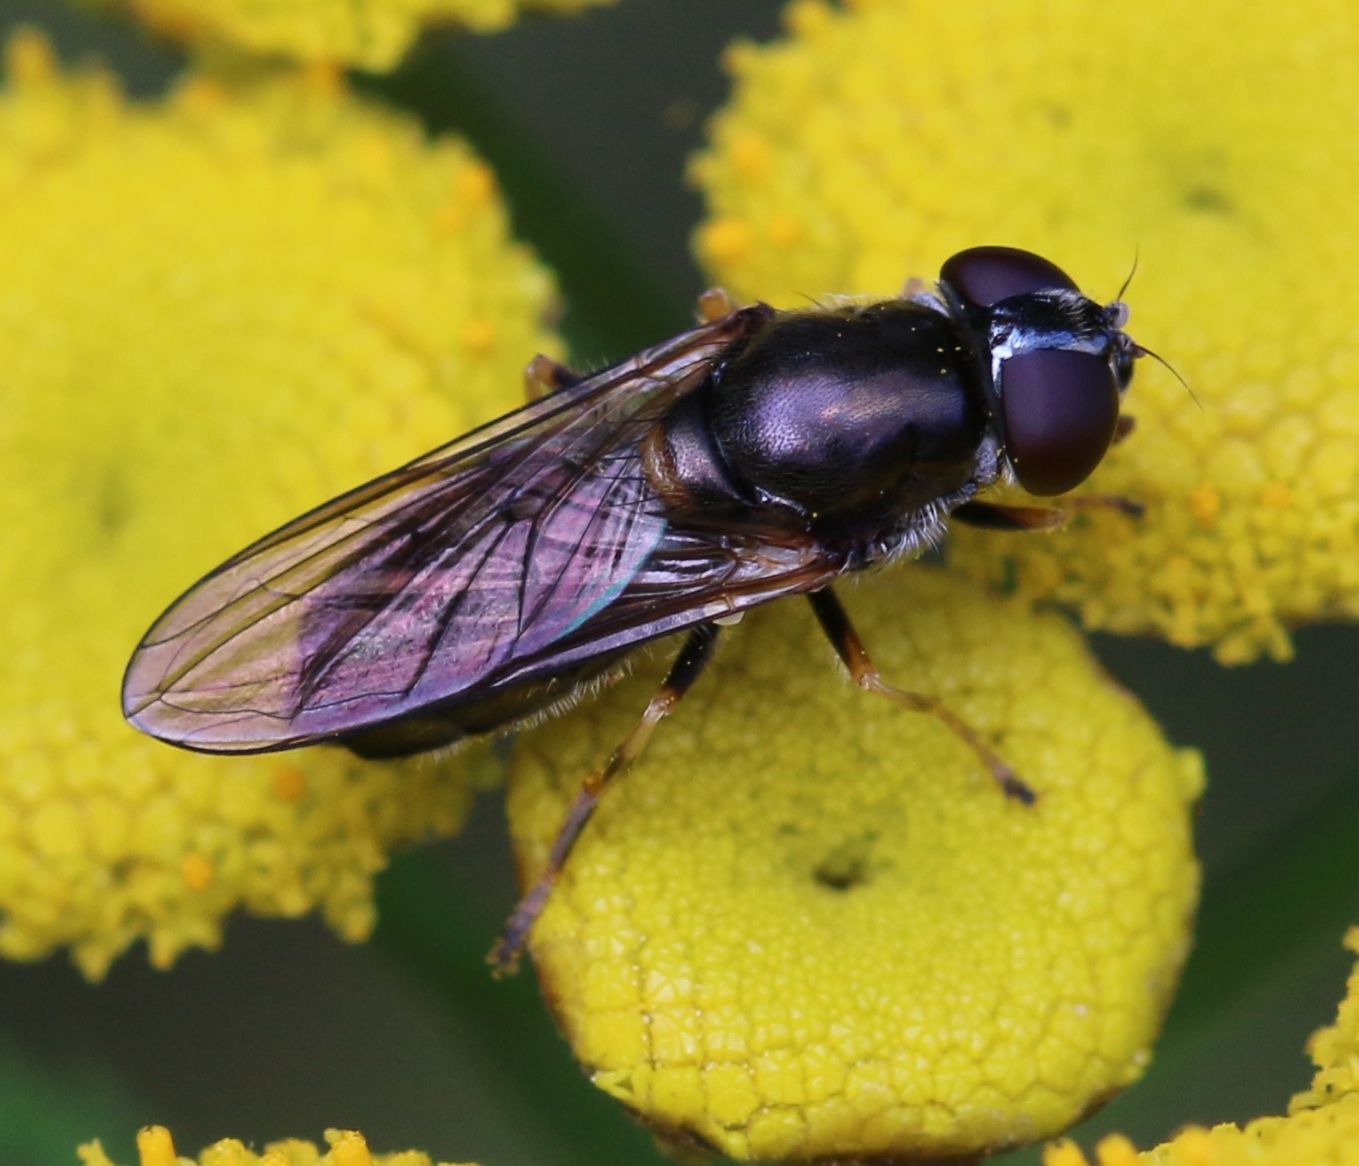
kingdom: Animalia
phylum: Arthropoda
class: Insecta
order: Diptera
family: Syrphidae
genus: Cheilosia
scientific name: Cheilosia scutellata
